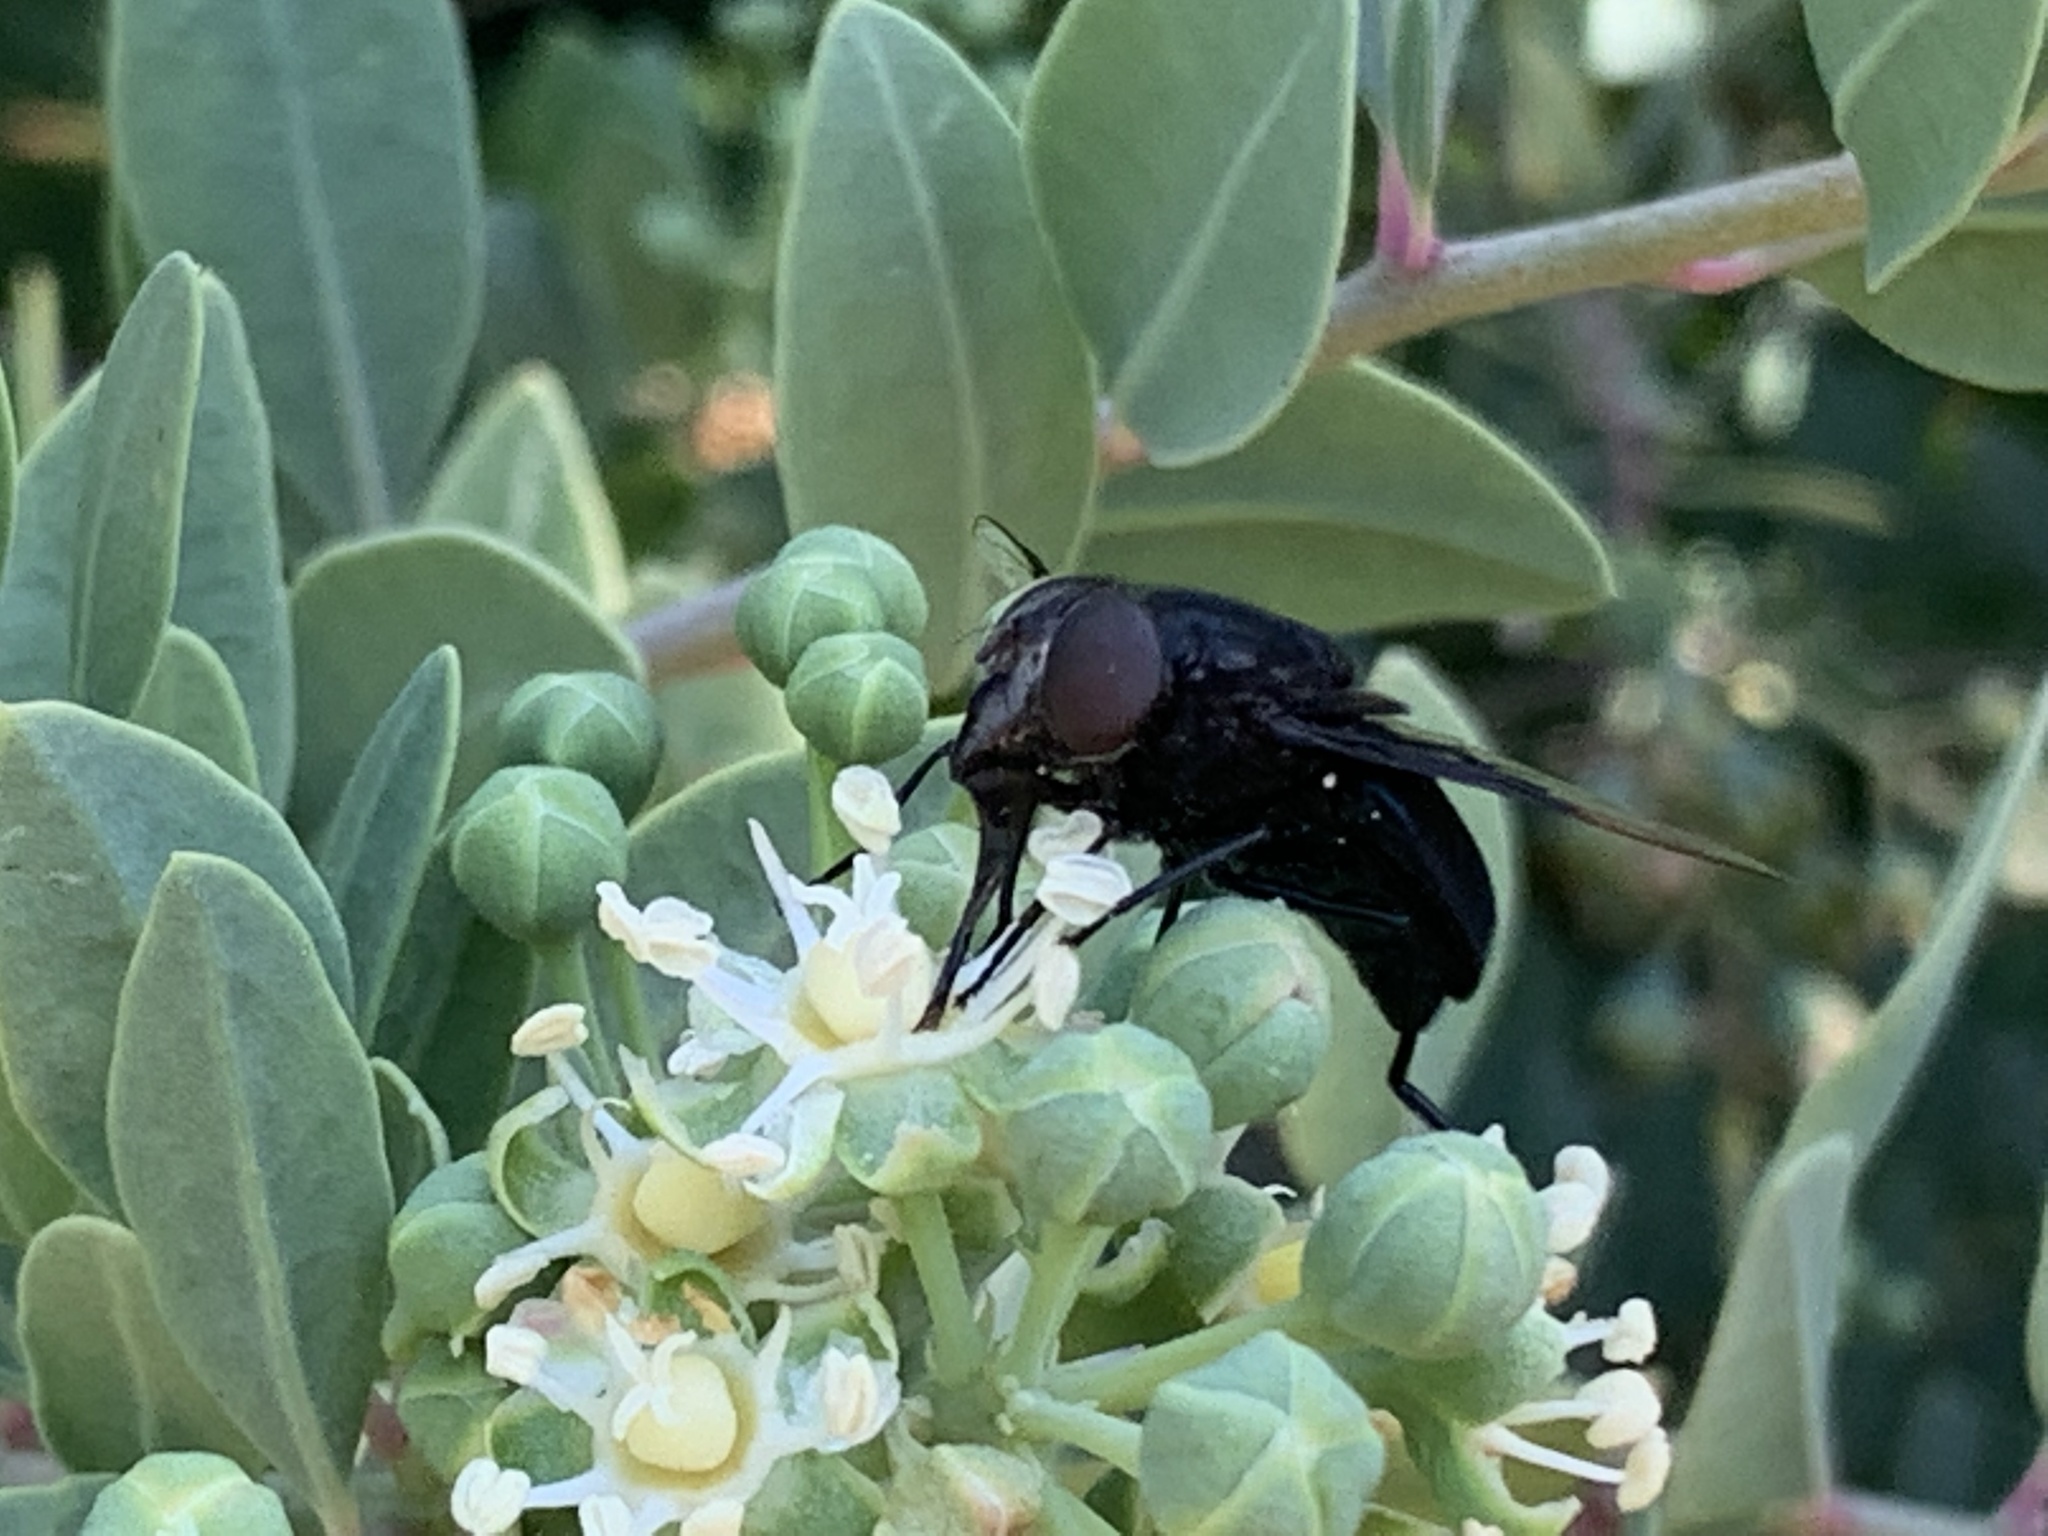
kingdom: Animalia
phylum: Arthropoda
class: Insecta
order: Diptera
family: Syrphidae
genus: Copestylum
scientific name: Copestylum mexicanum
